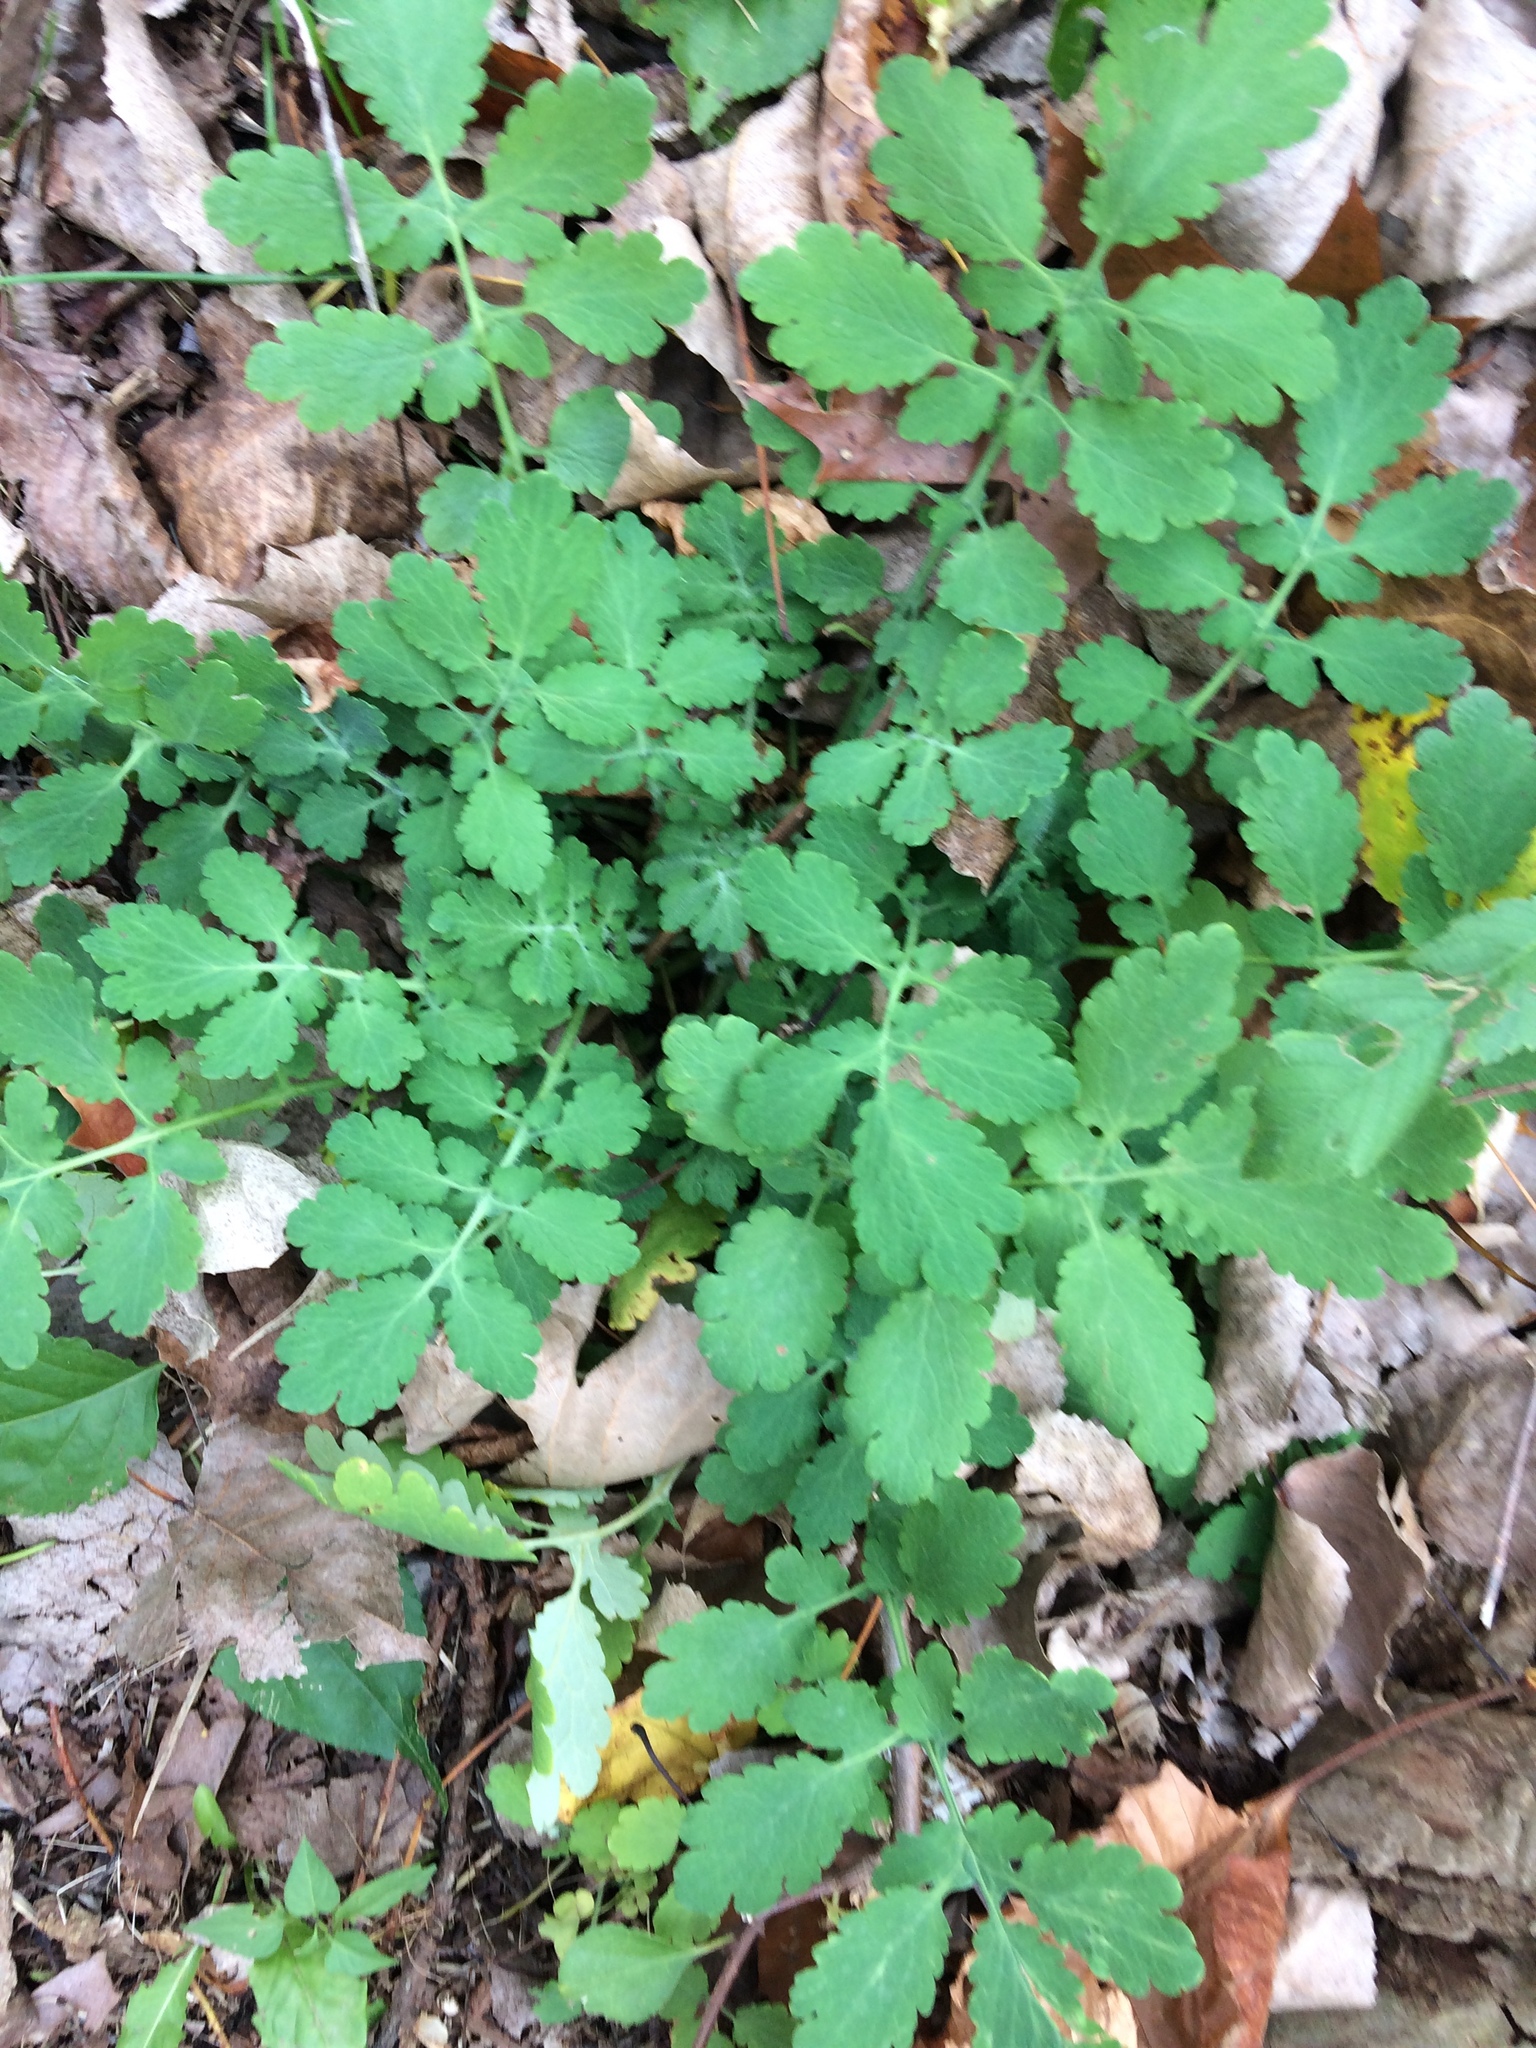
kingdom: Plantae
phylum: Tracheophyta
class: Magnoliopsida
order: Ranunculales
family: Papaveraceae
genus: Chelidonium
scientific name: Chelidonium majus
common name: Greater celandine
